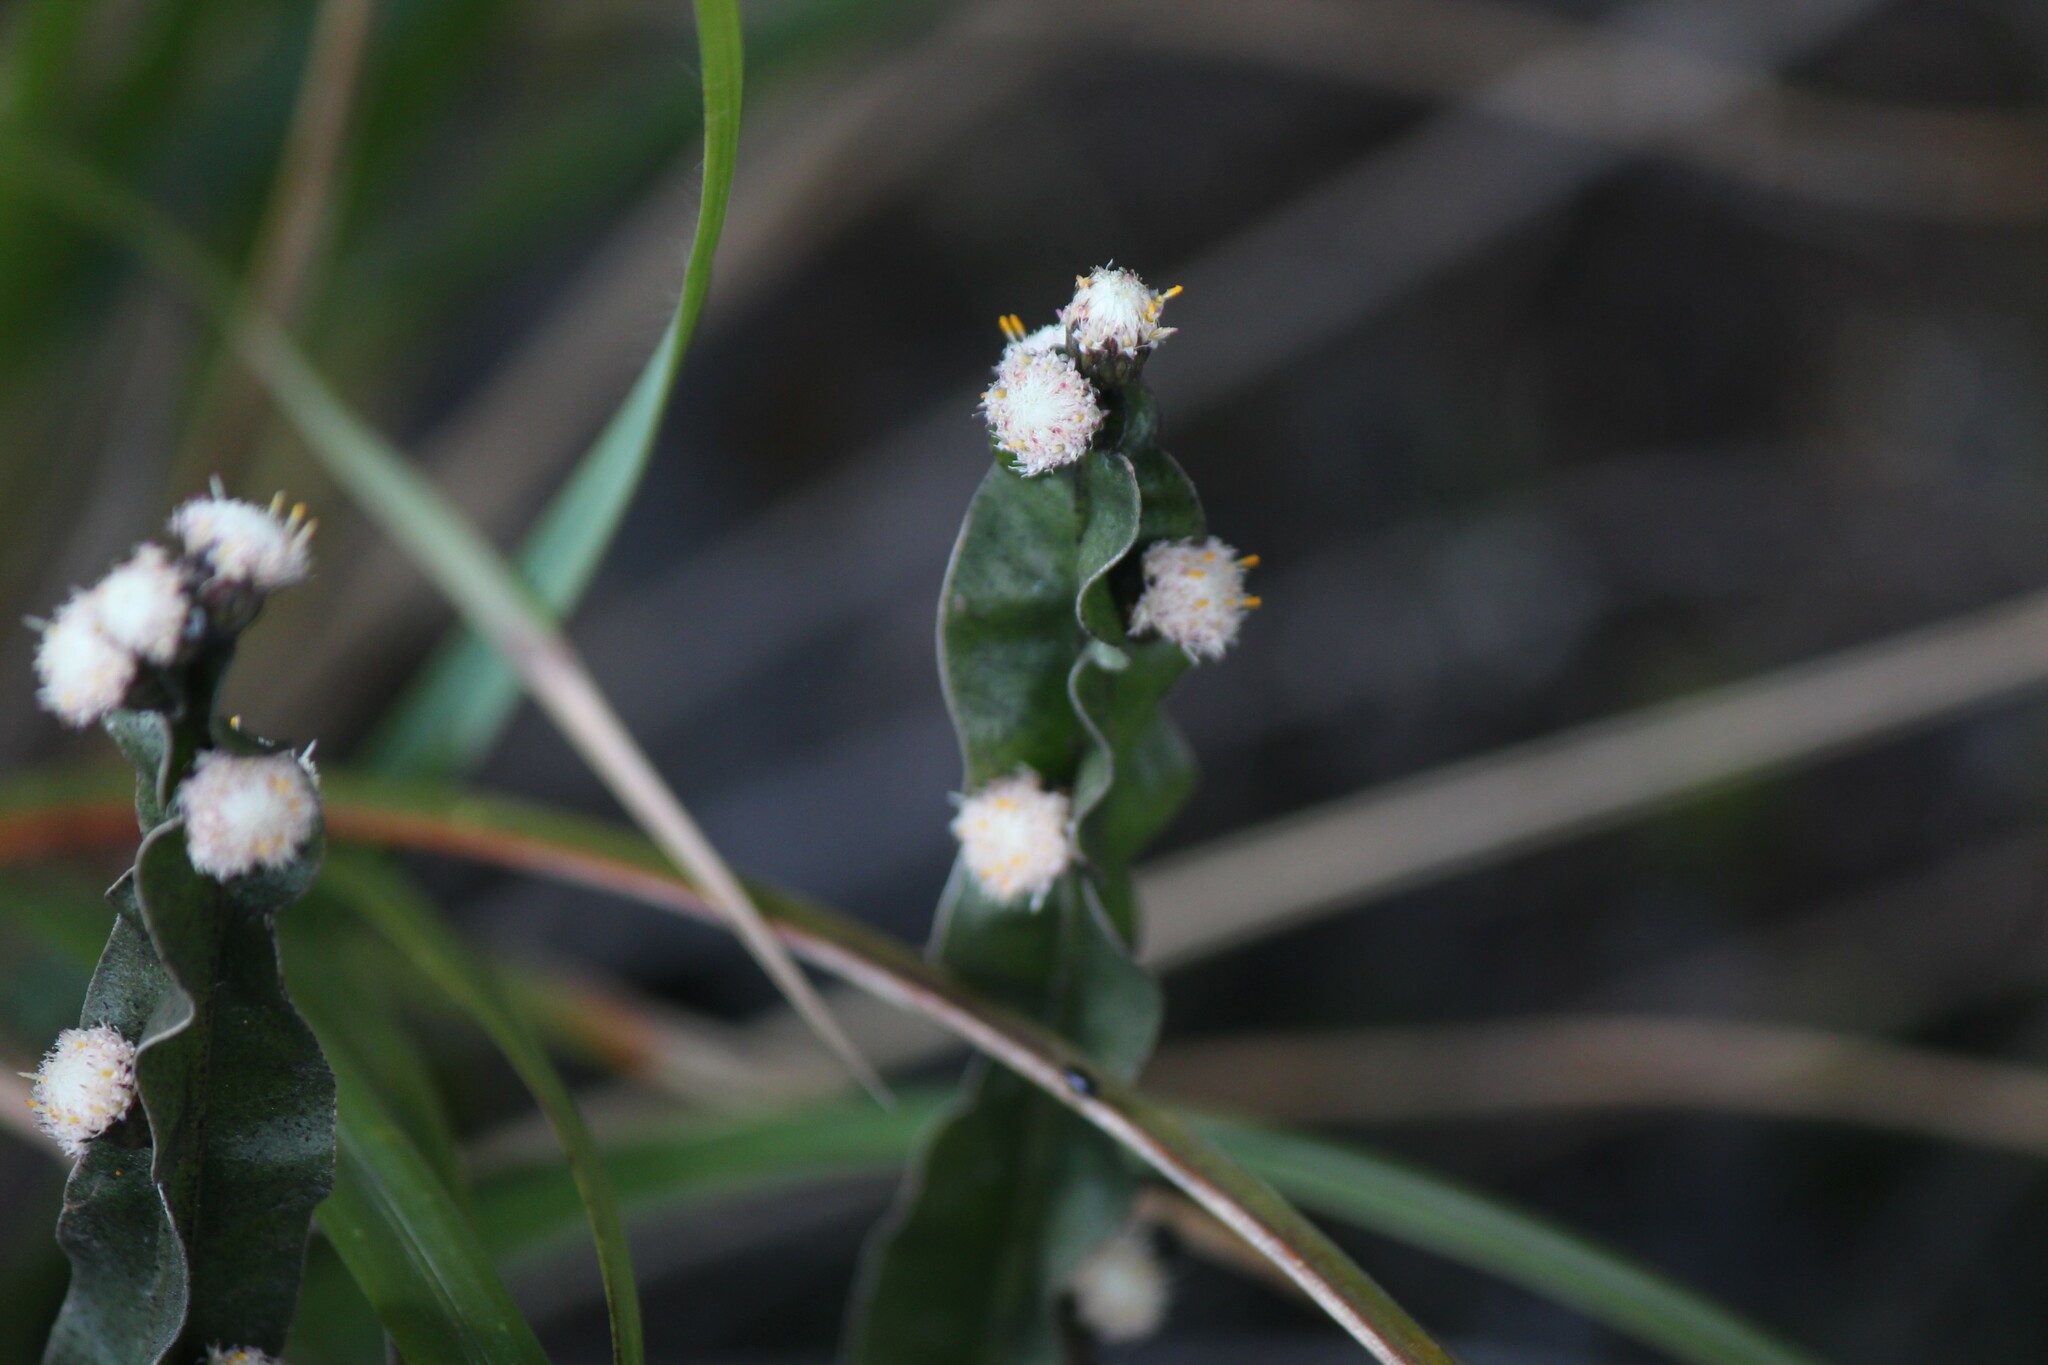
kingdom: Plantae
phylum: Tracheophyta
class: Magnoliopsida
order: Asterales
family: Asteraceae
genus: Baccharis
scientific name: Baccharis genistelloides
